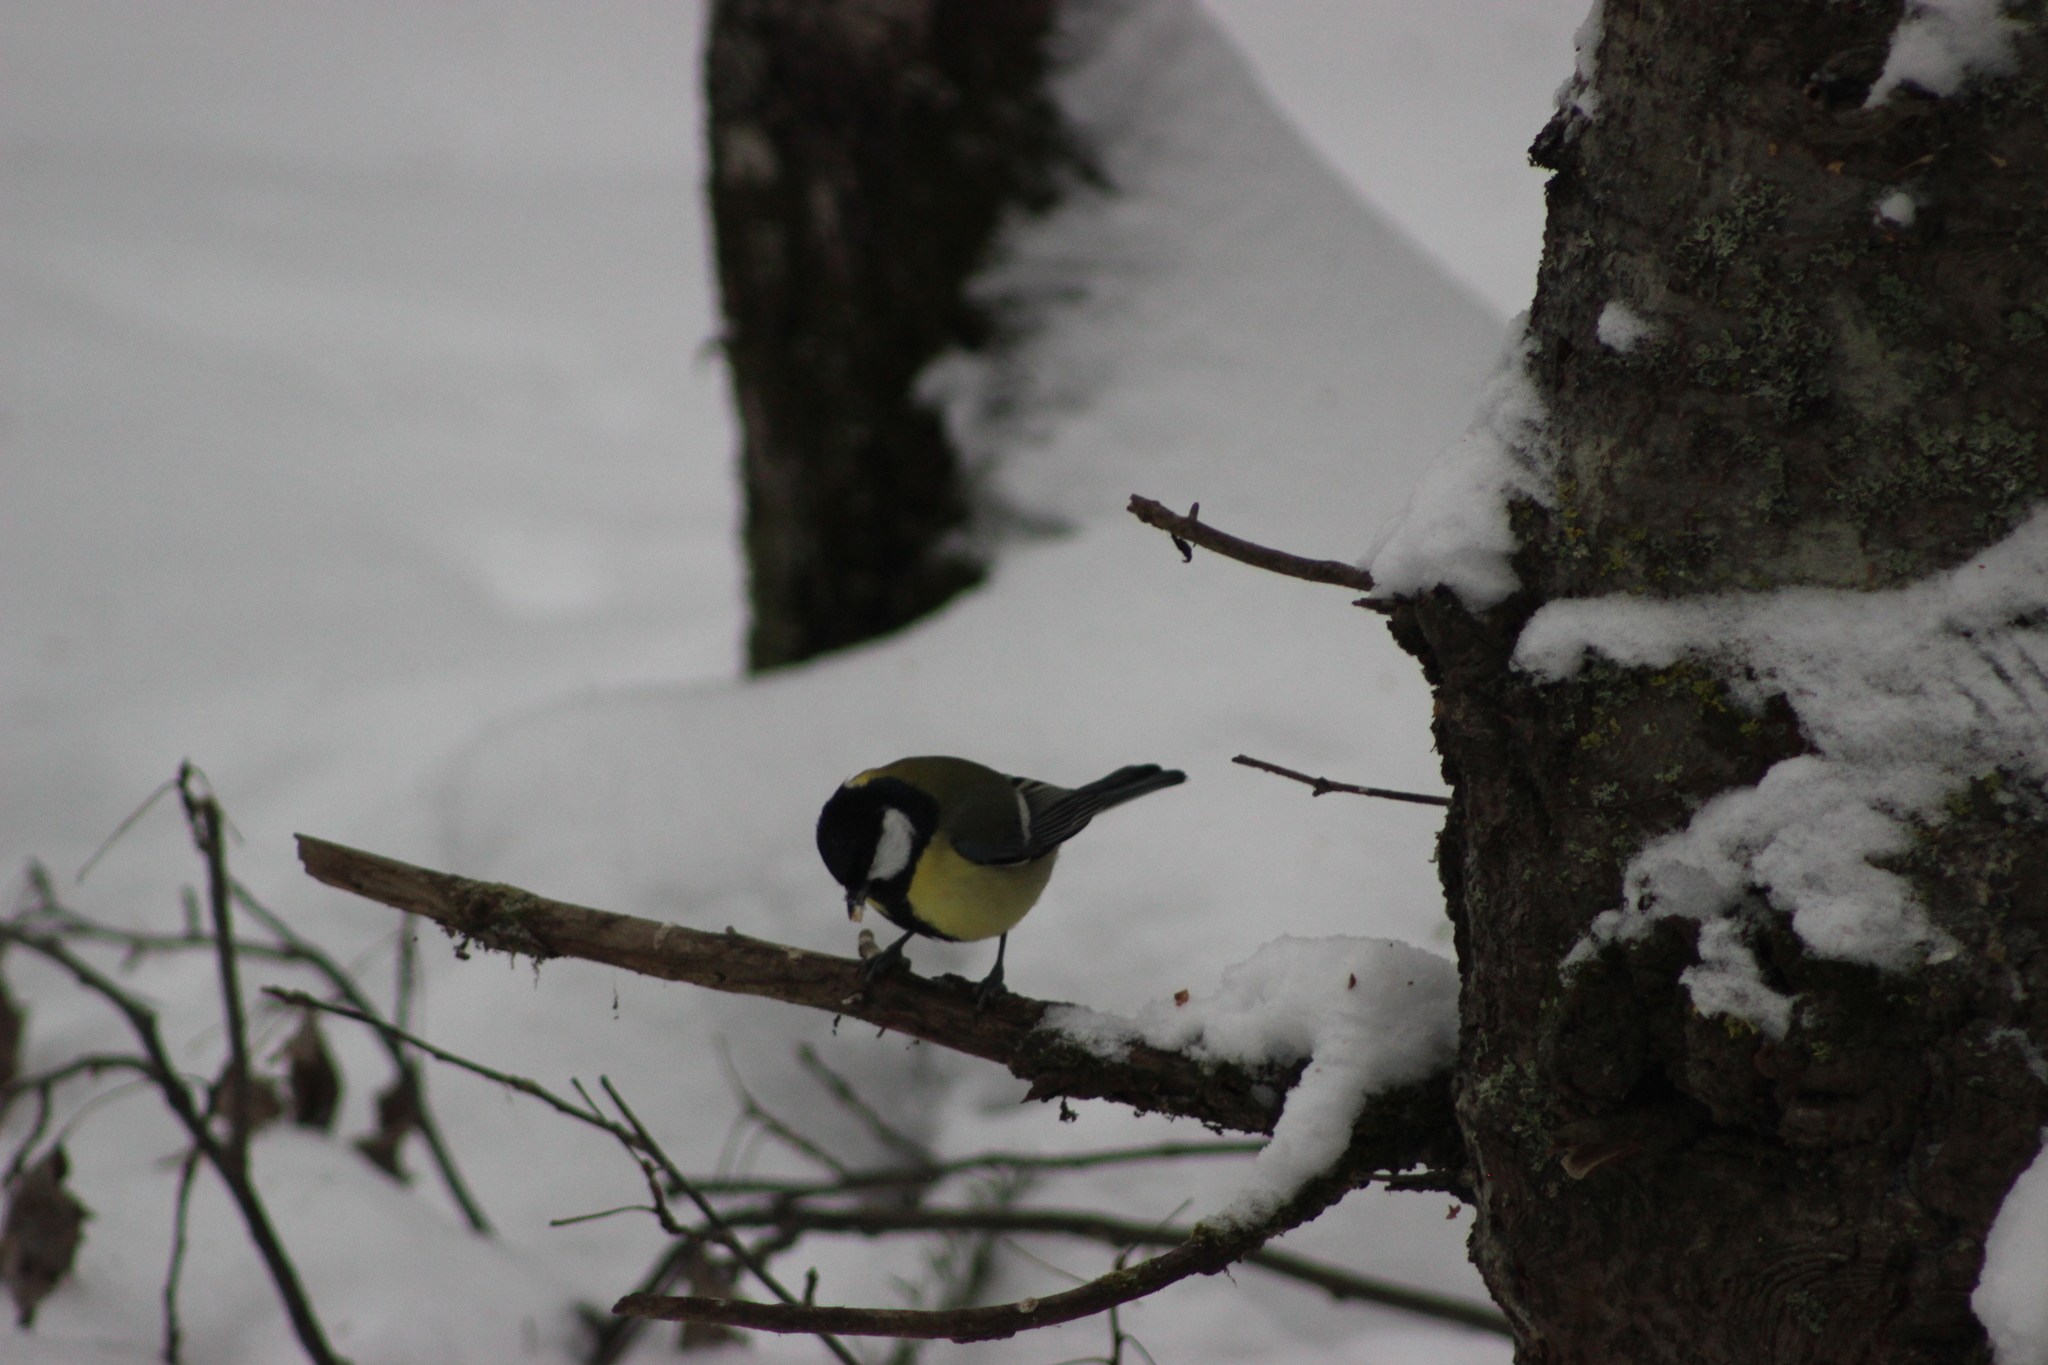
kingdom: Animalia
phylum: Chordata
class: Aves
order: Passeriformes
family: Paridae
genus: Parus
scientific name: Parus major
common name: Great tit
